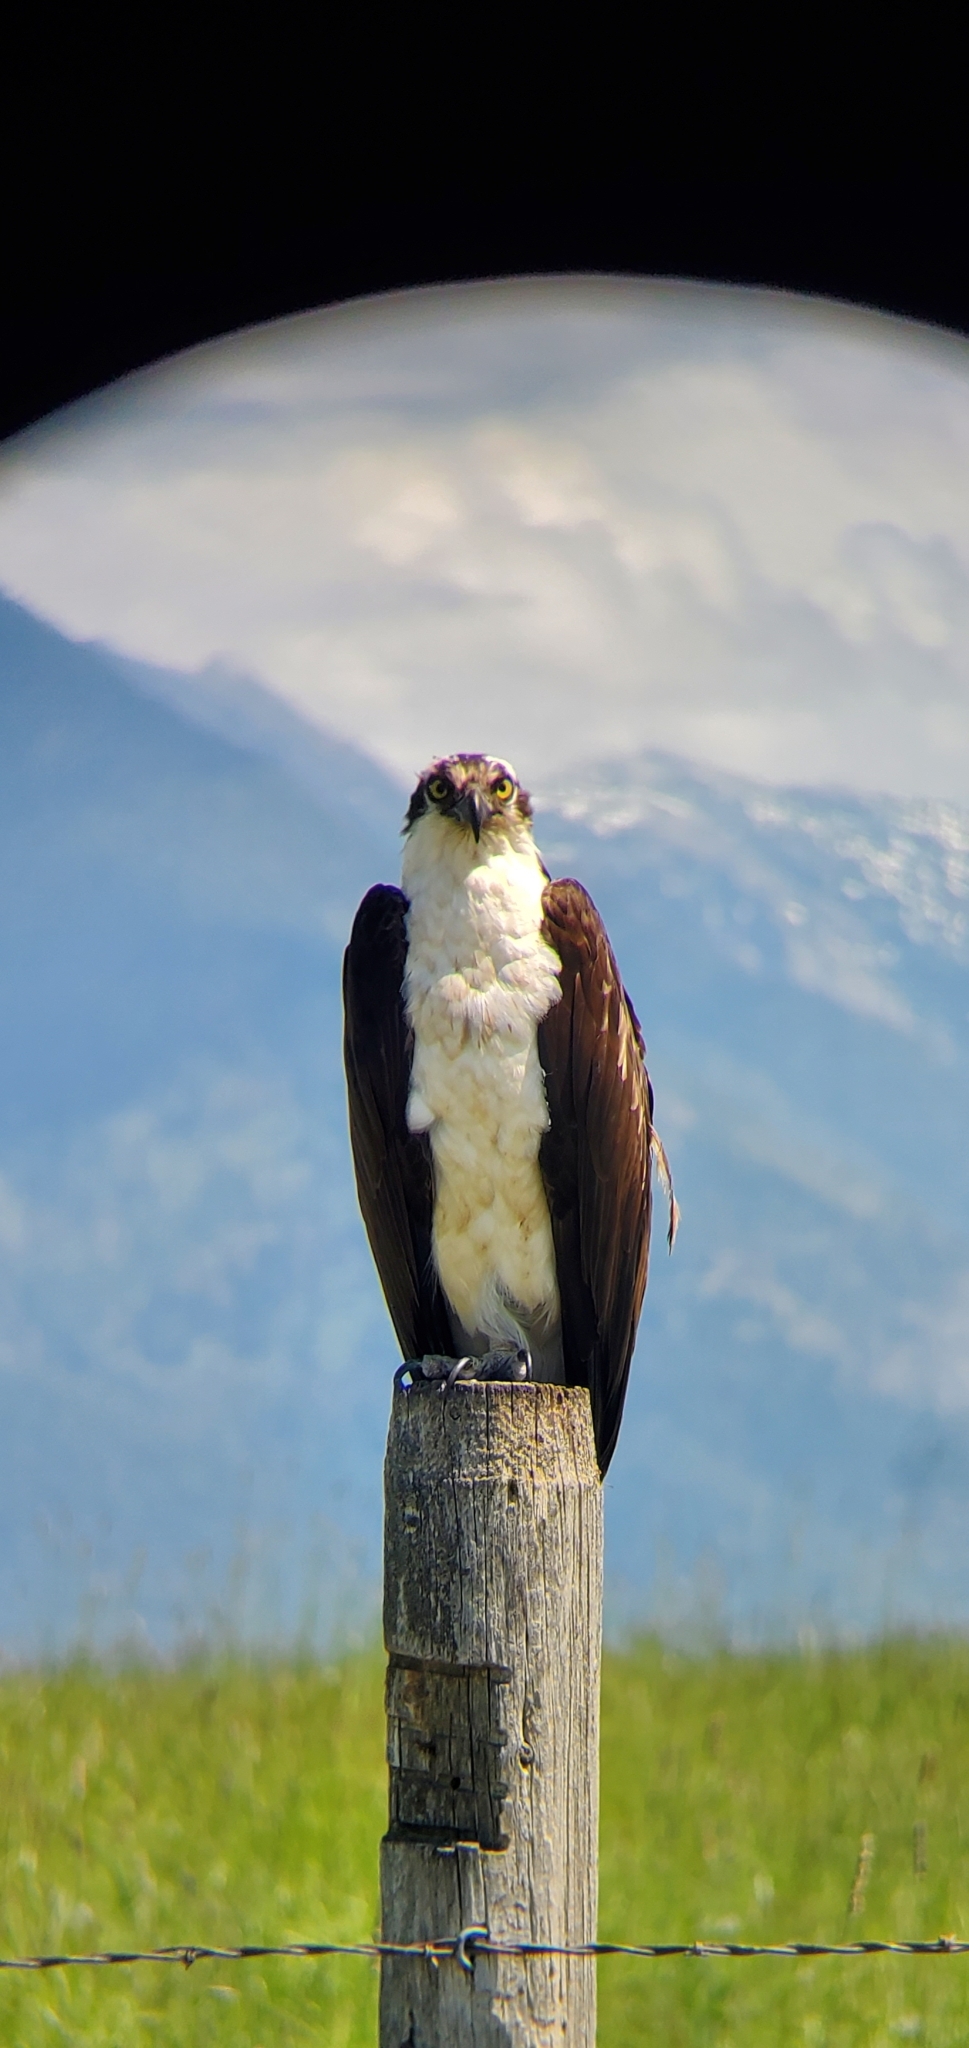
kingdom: Animalia
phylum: Chordata
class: Aves
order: Accipitriformes
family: Pandionidae
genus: Pandion
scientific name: Pandion haliaetus
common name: Osprey
